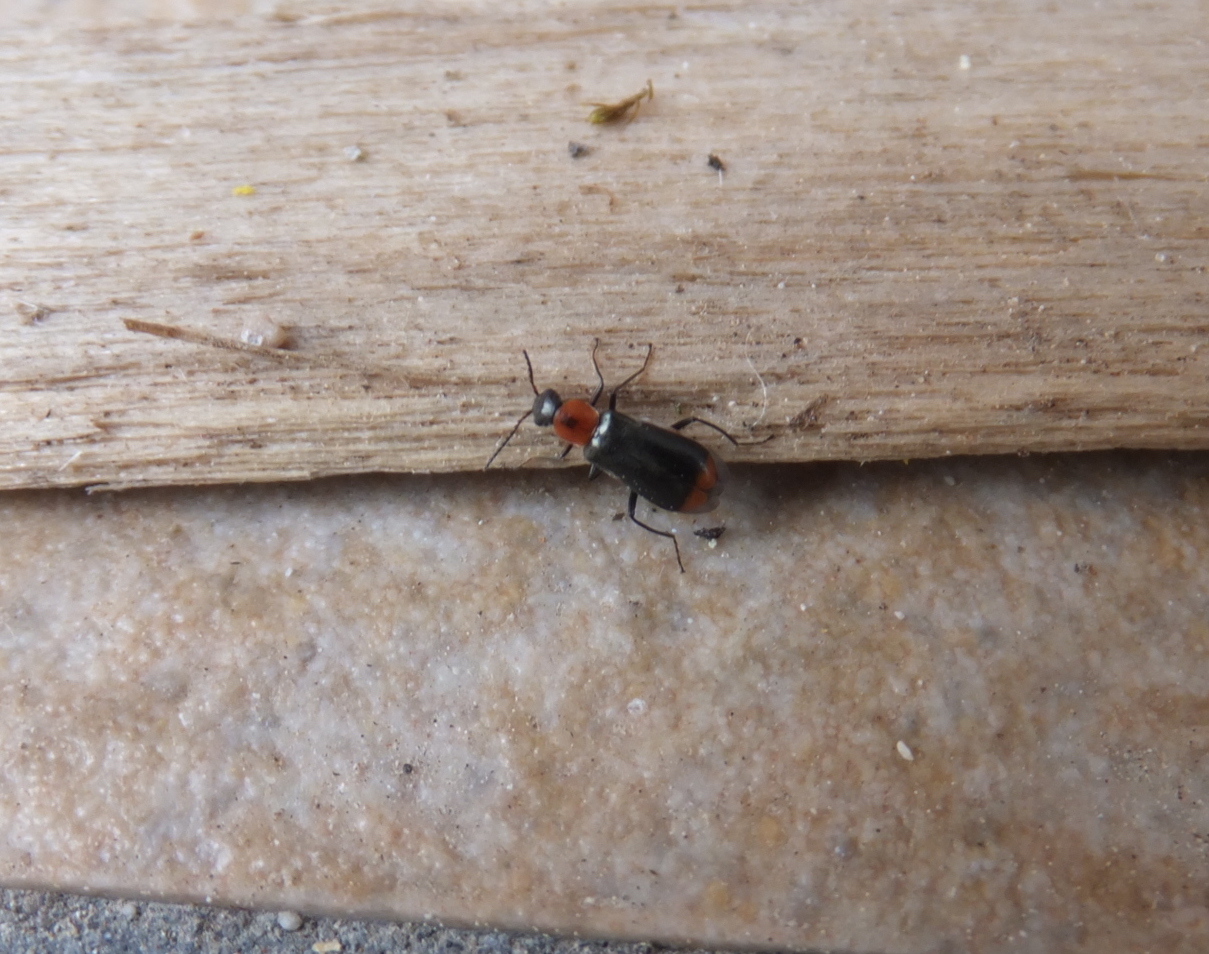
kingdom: Animalia
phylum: Arthropoda
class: Insecta
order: Coleoptera
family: Malachiidae
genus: Attalus
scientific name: Attalus minimus
